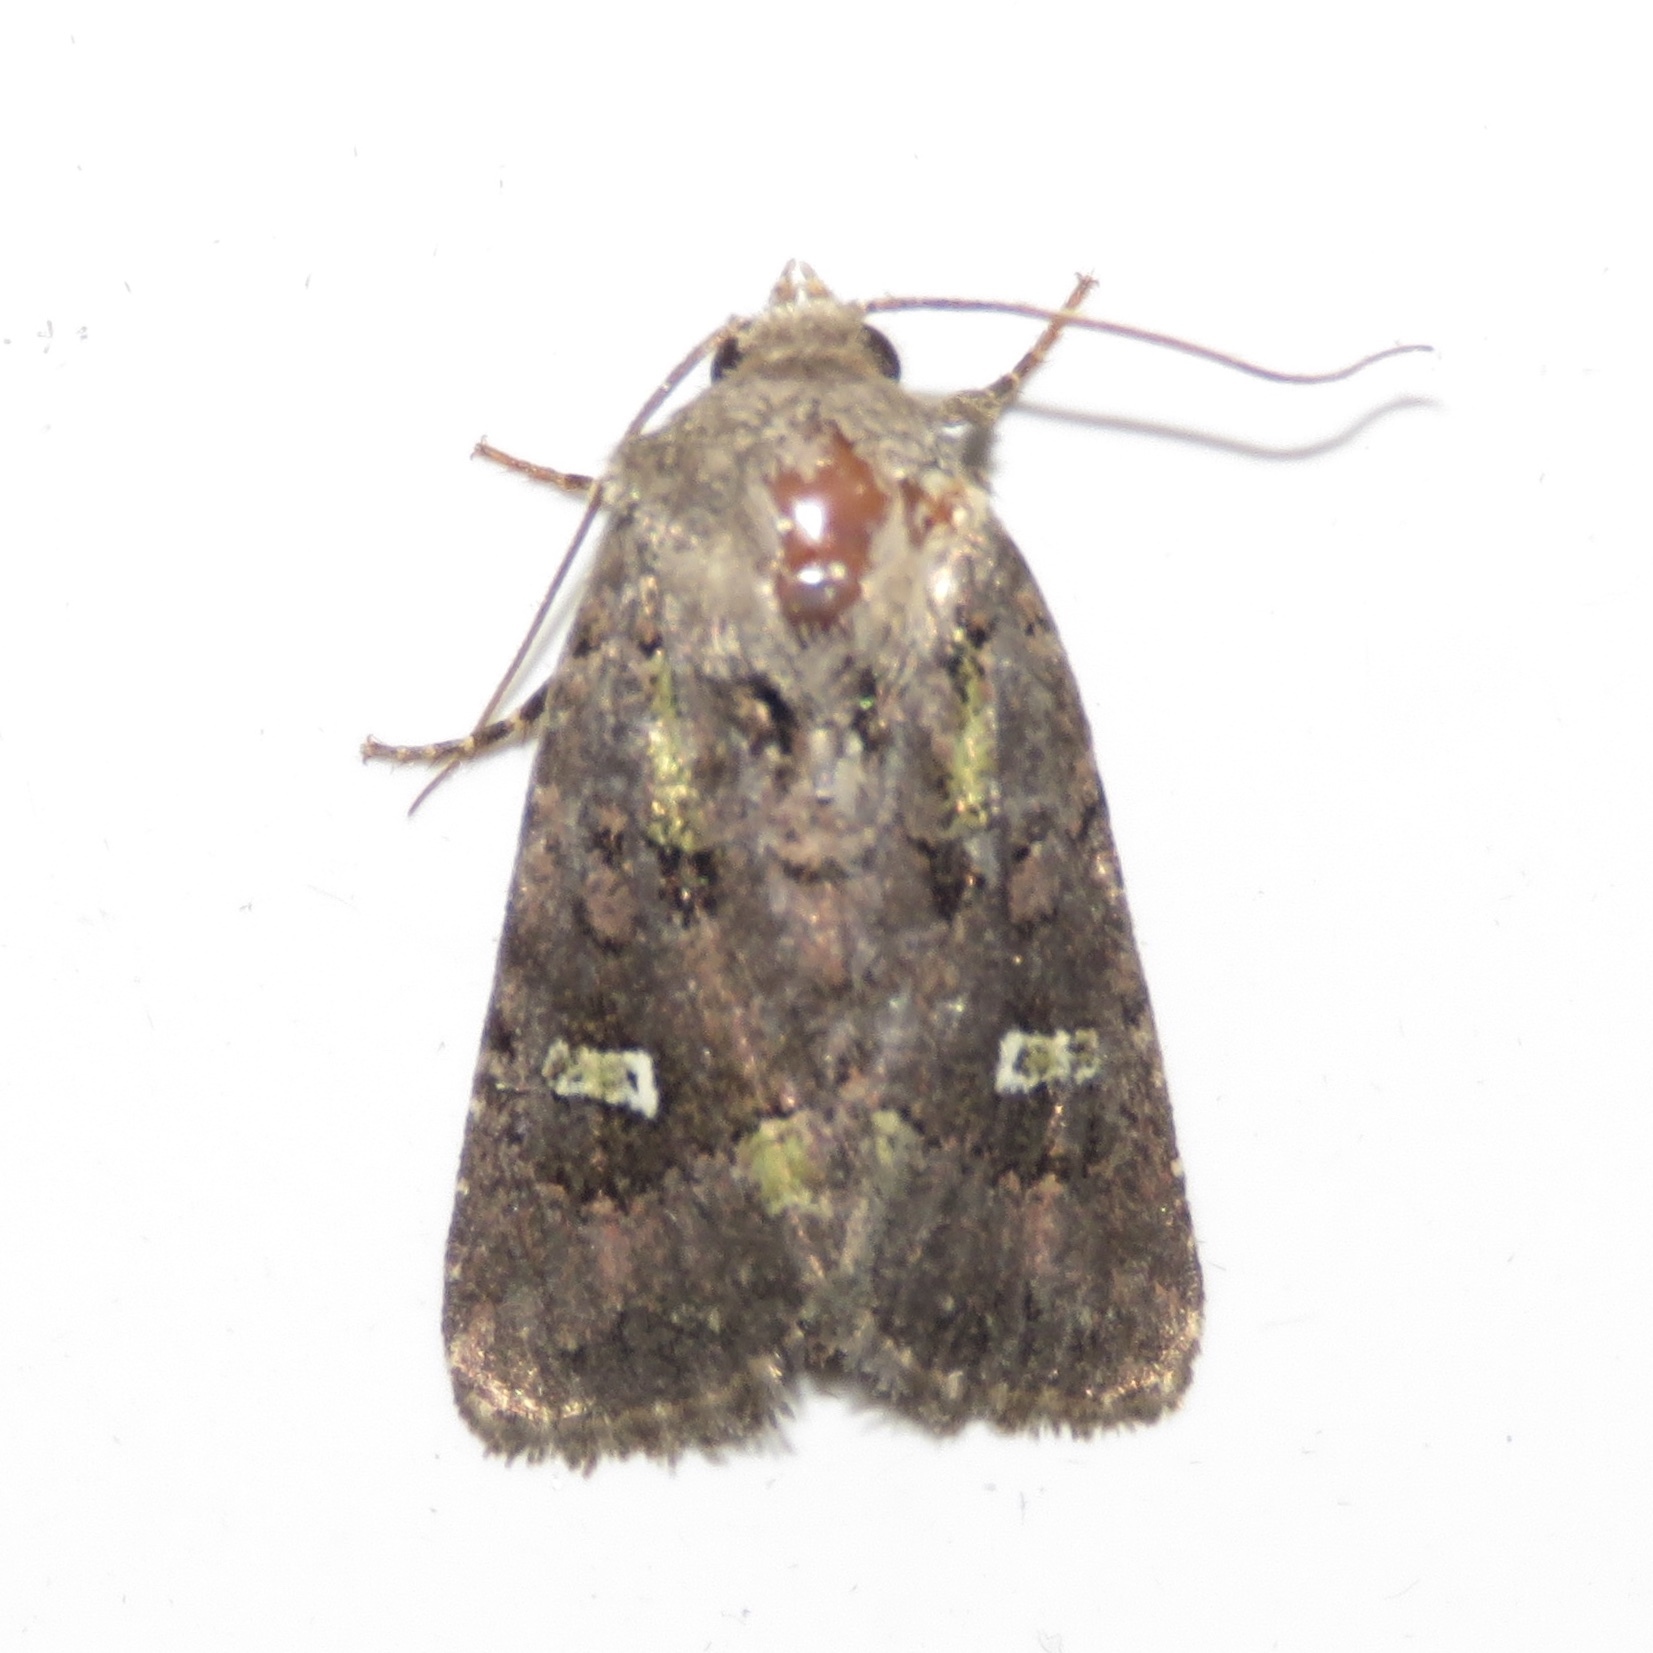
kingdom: Animalia
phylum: Arthropoda
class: Insecta
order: Lepidoptera
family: Noctuidae
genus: Lacinipolia
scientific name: Lacinipolia renigera
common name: Kidney-spotted minor
